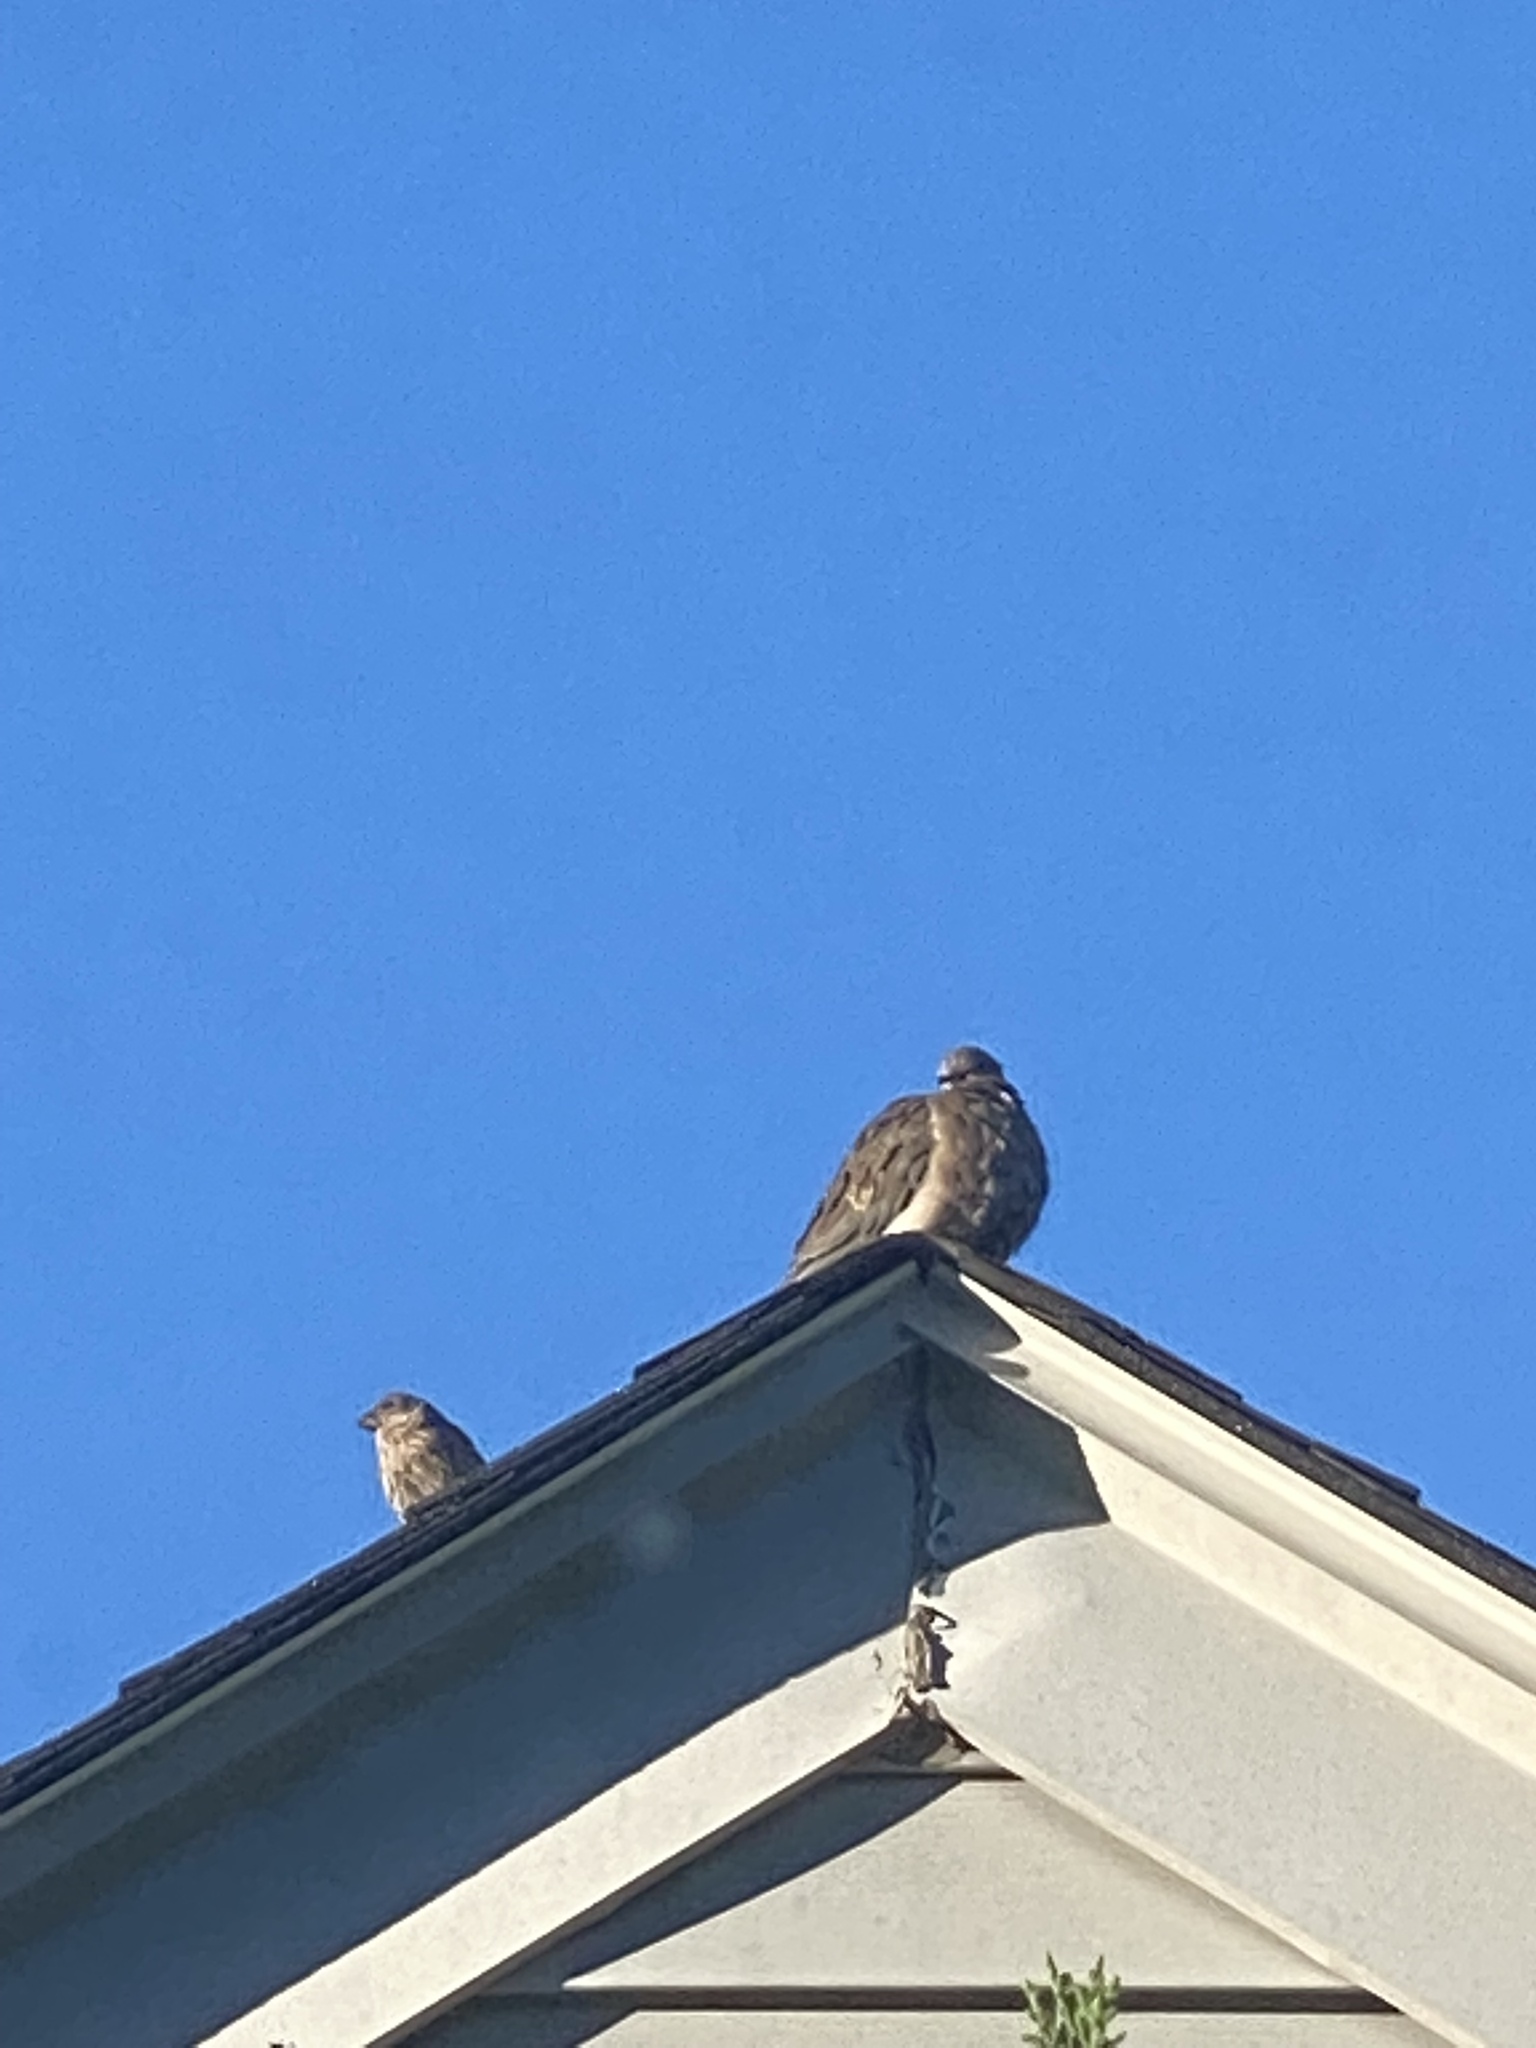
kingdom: Animalia
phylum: Chordata
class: Aves
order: Columbiformes
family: Columbidae
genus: Zenaida
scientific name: Zenaida macroura
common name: Mourning dove
